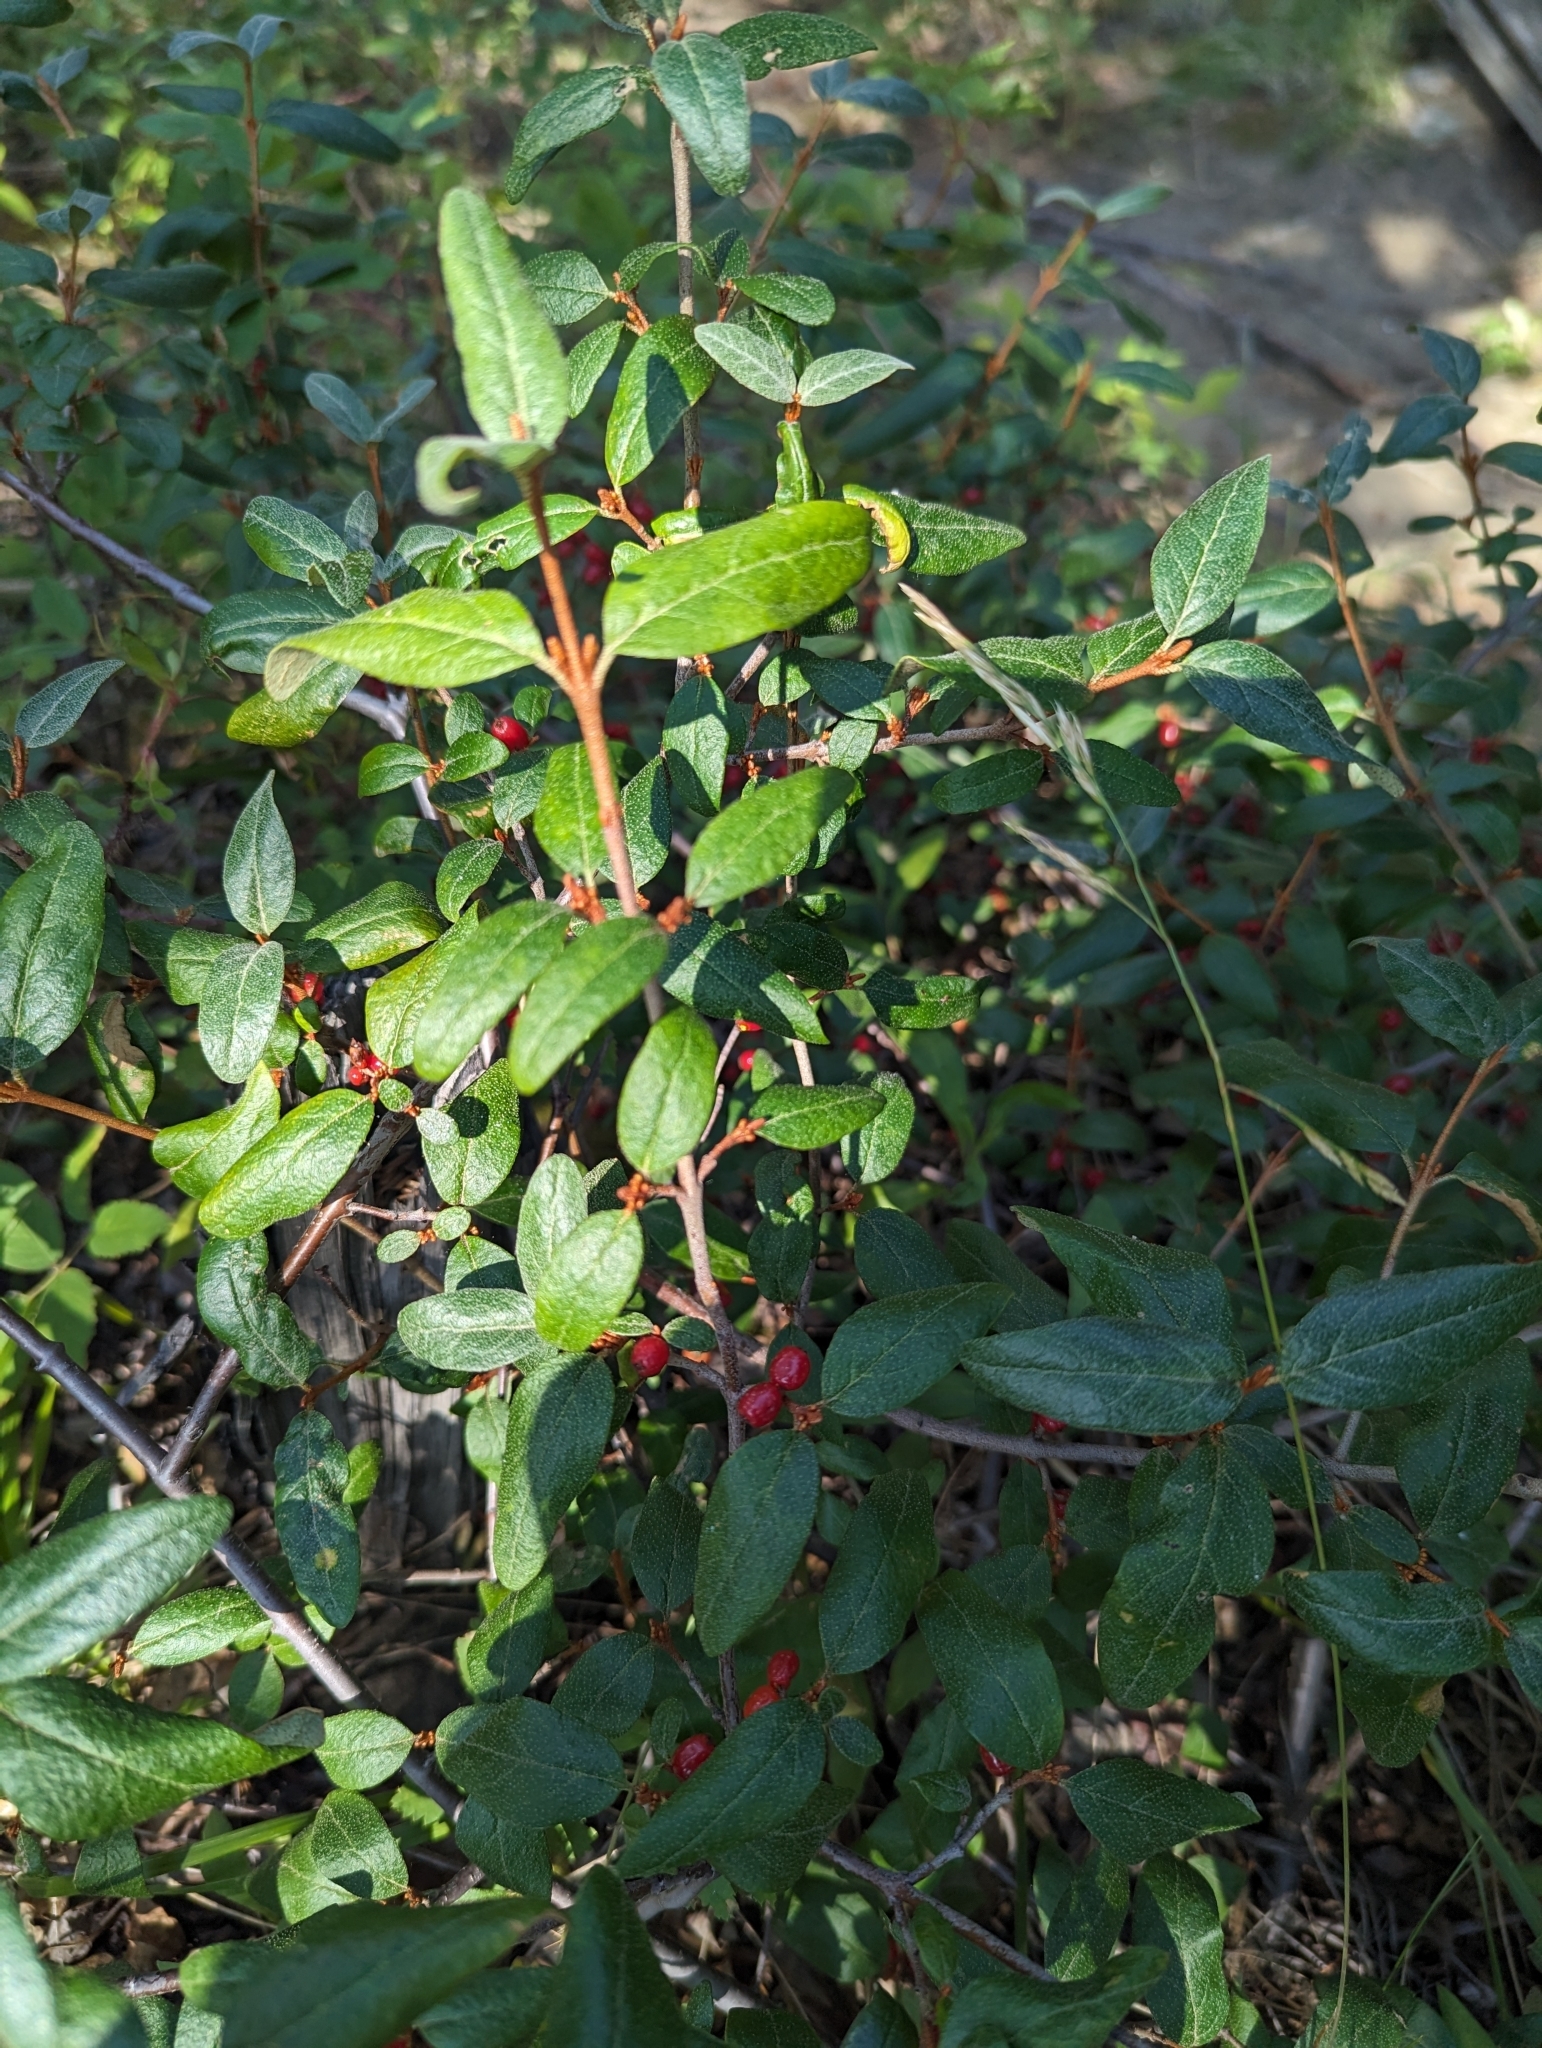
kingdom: Plantae
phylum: Tracheophyta
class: Magnoliopsida
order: Rosales
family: Elaeagnaceae
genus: Shepherdia
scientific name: Shepherdia canadensis
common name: Soapberry
